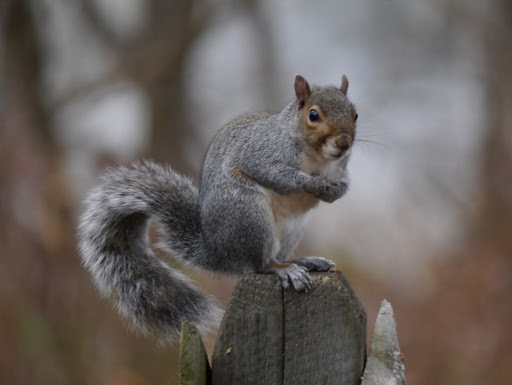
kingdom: Animalia
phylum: Chordata
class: Mammalia
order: Rodentia
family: Sciuridae
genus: Sciurus
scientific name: Sciurus carolinensis
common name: Eastern gray squirrel
